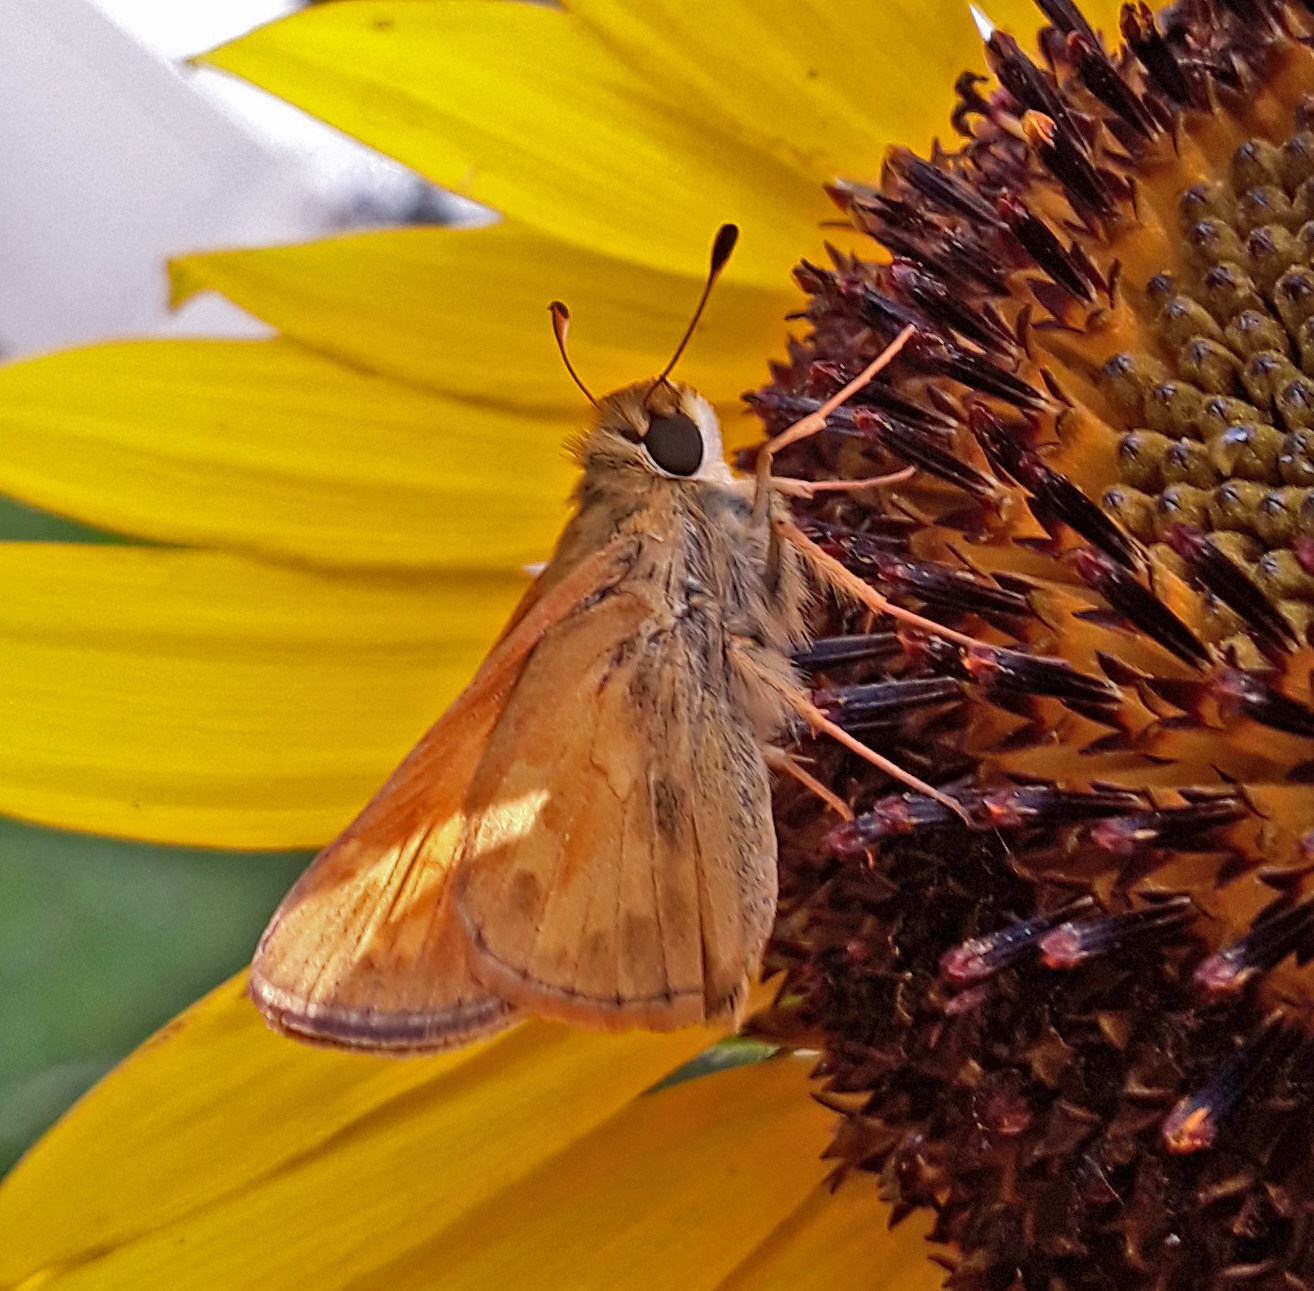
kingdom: Animalia
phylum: Arthropoda
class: Insecta
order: Lepidoptera
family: Hesperiidae
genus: Atalopedes
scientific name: Atalopedes
